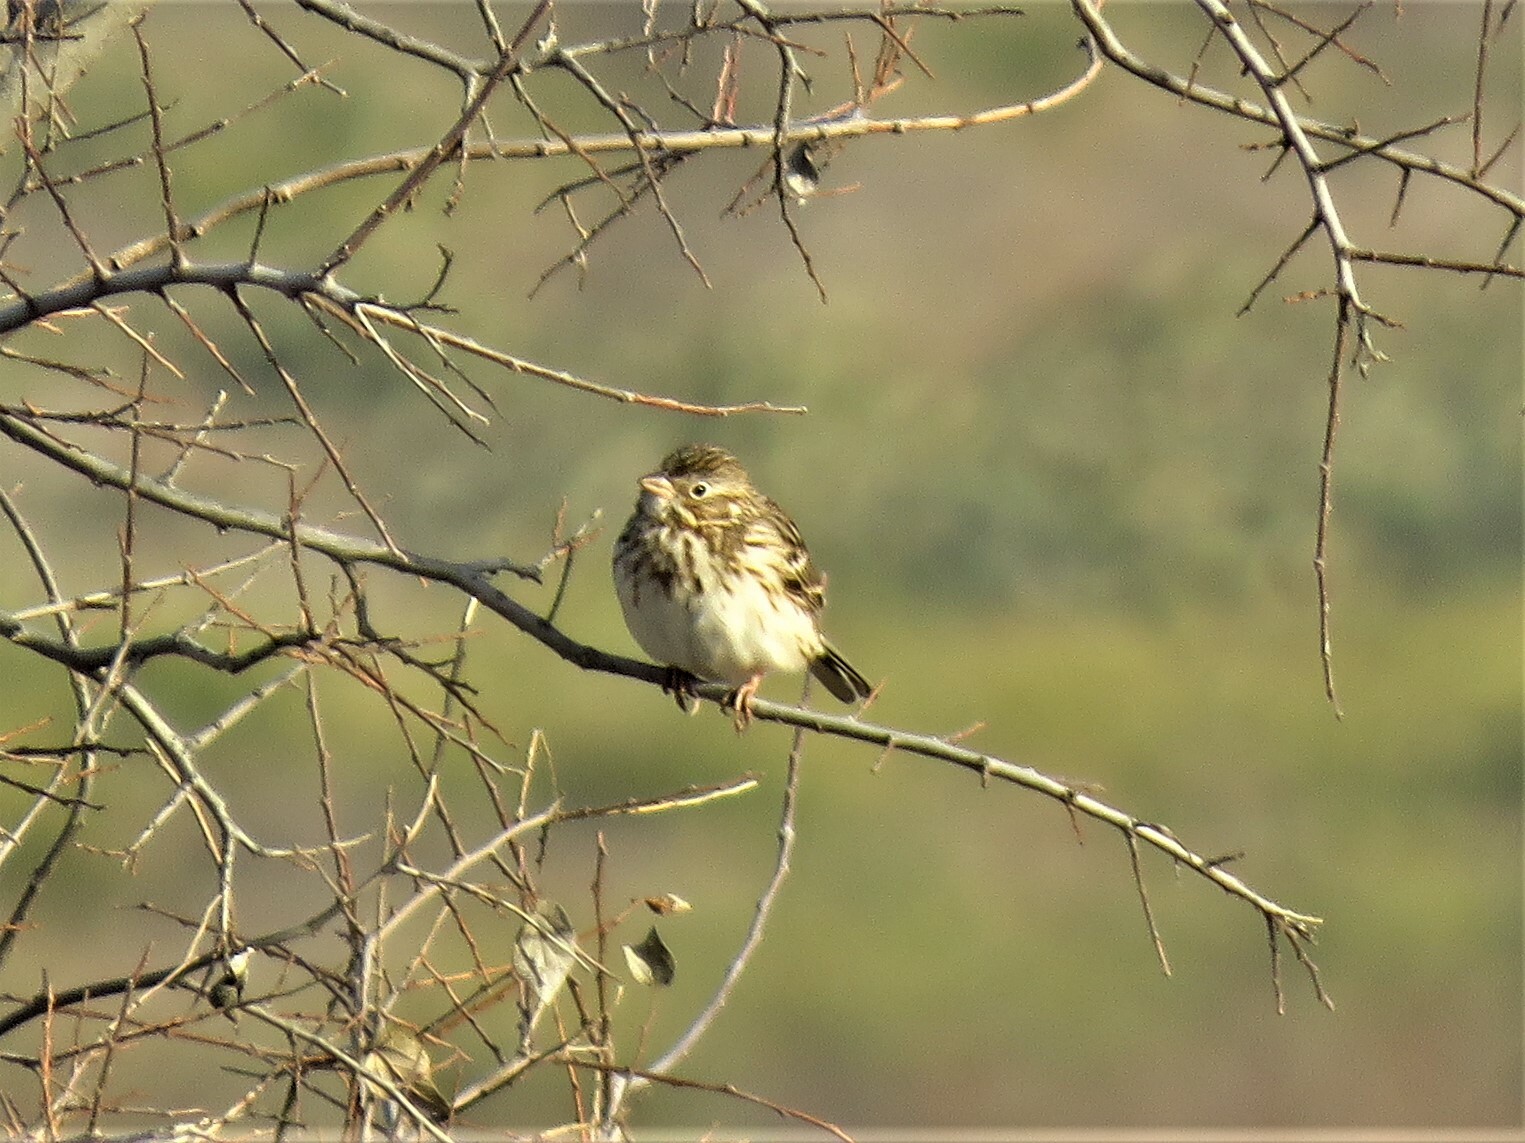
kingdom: Animalia
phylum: Chordata
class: Aves
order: Passeriformes
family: Passerellidae
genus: Pooecetes
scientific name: Pooecetes gramineus
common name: Vesper sparrow
